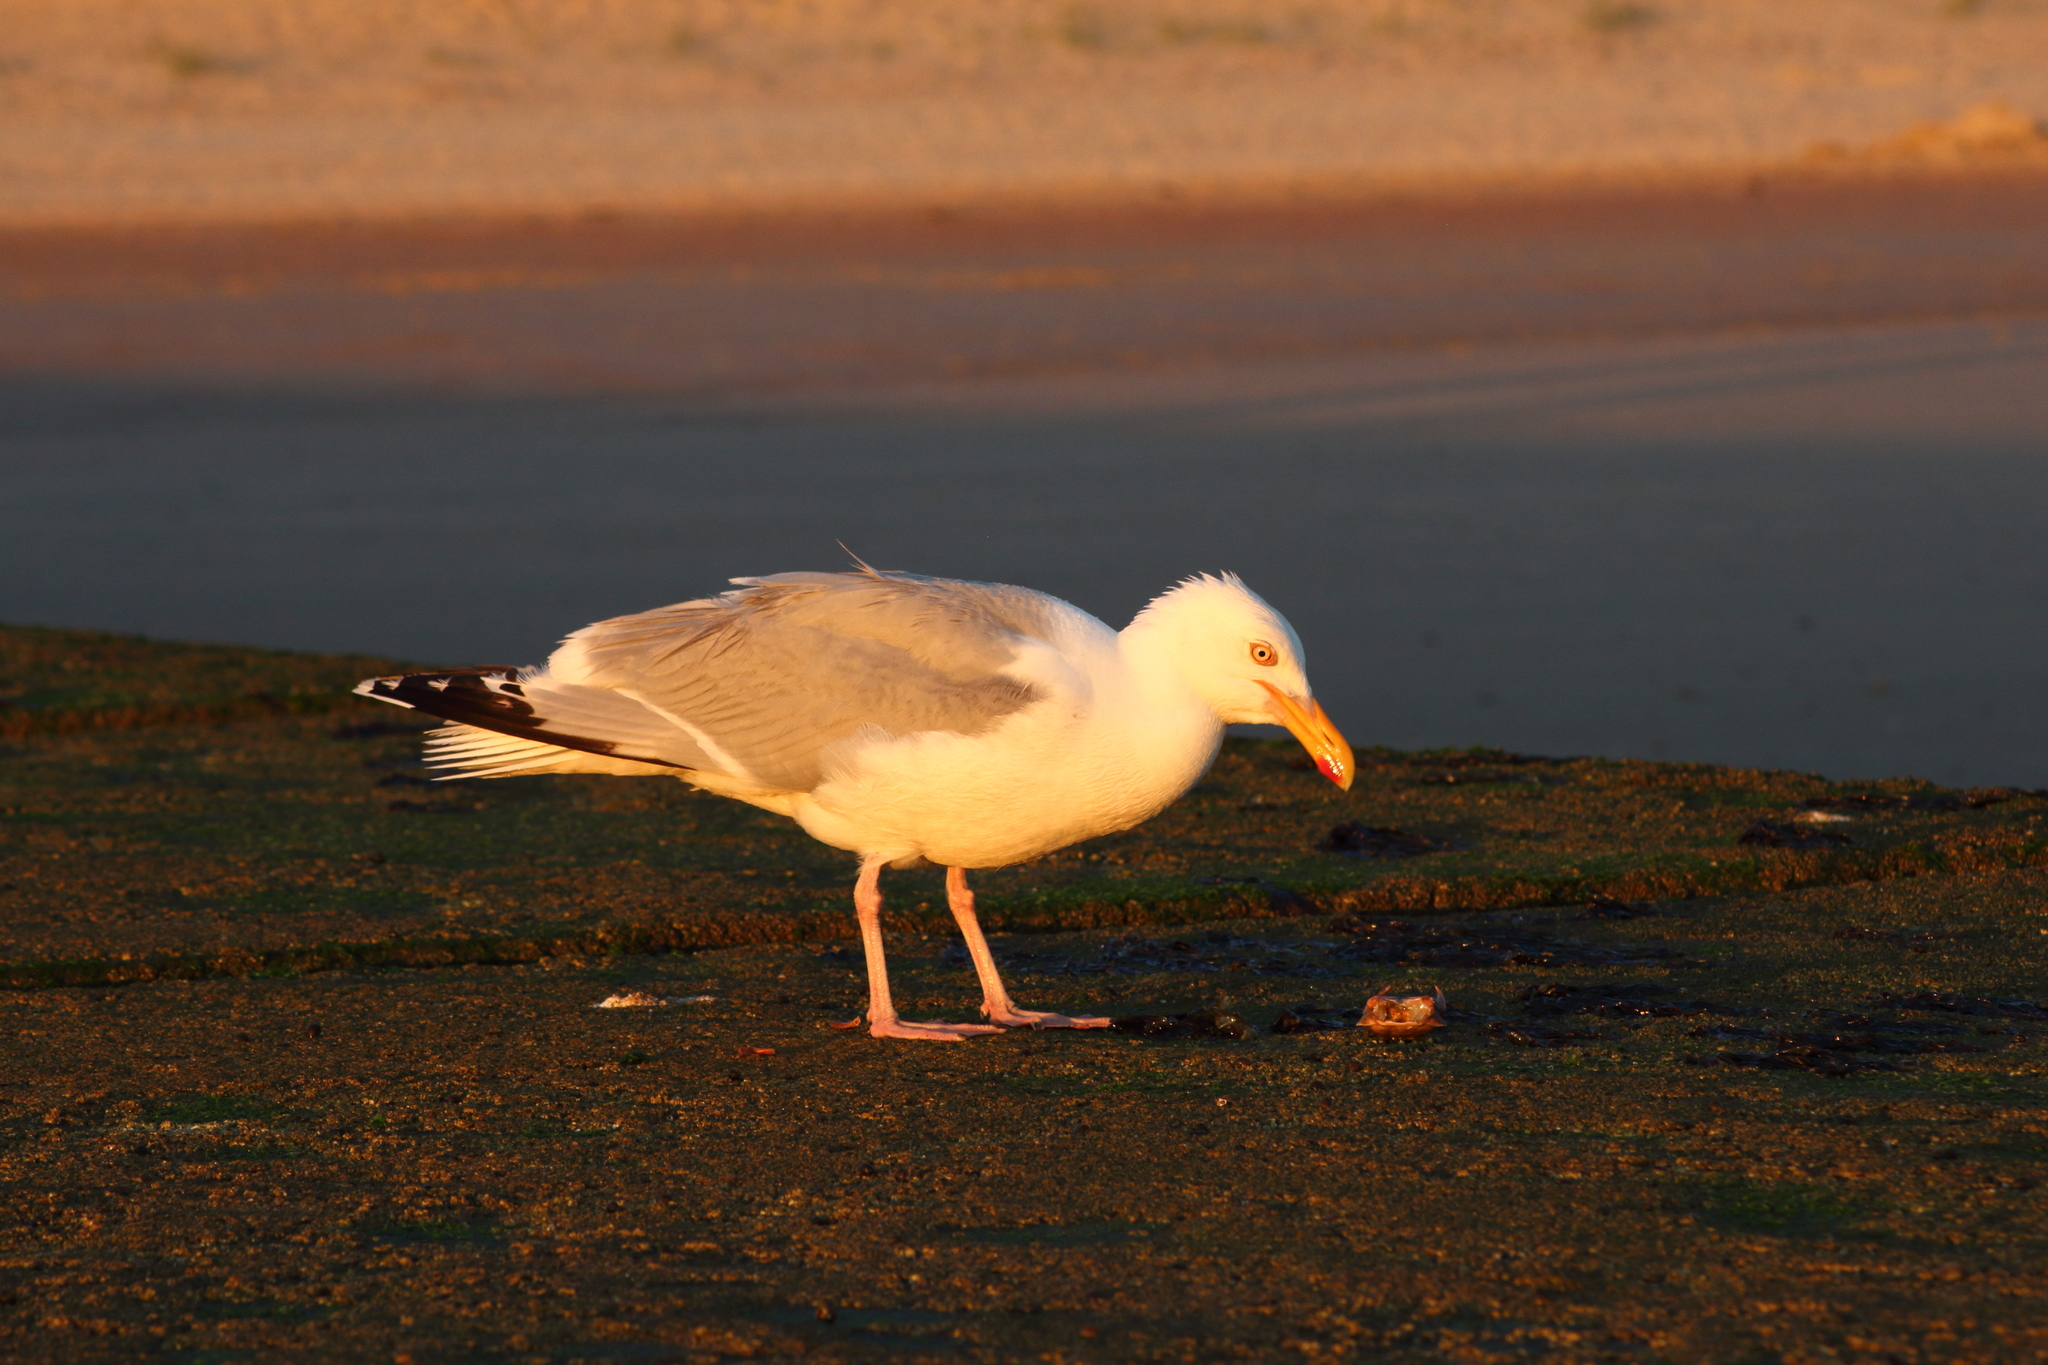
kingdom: Animalia
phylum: Chordata
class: Aves
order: Charadriiformes
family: Laridae
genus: Larus
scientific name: Larus argentatus
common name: Herring gull
